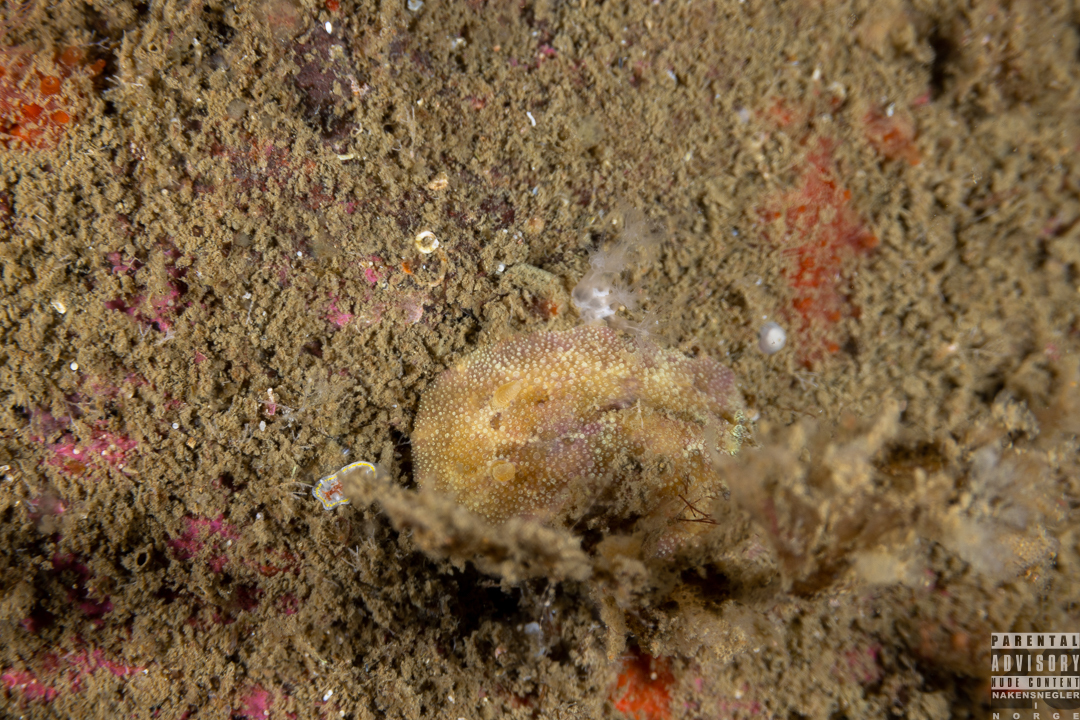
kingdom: Animalia
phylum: Mollusca
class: Gastropoda
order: Nudibranchia
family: Dorididae
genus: Doris
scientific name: Doris pseudoargus
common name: Sea lemon
